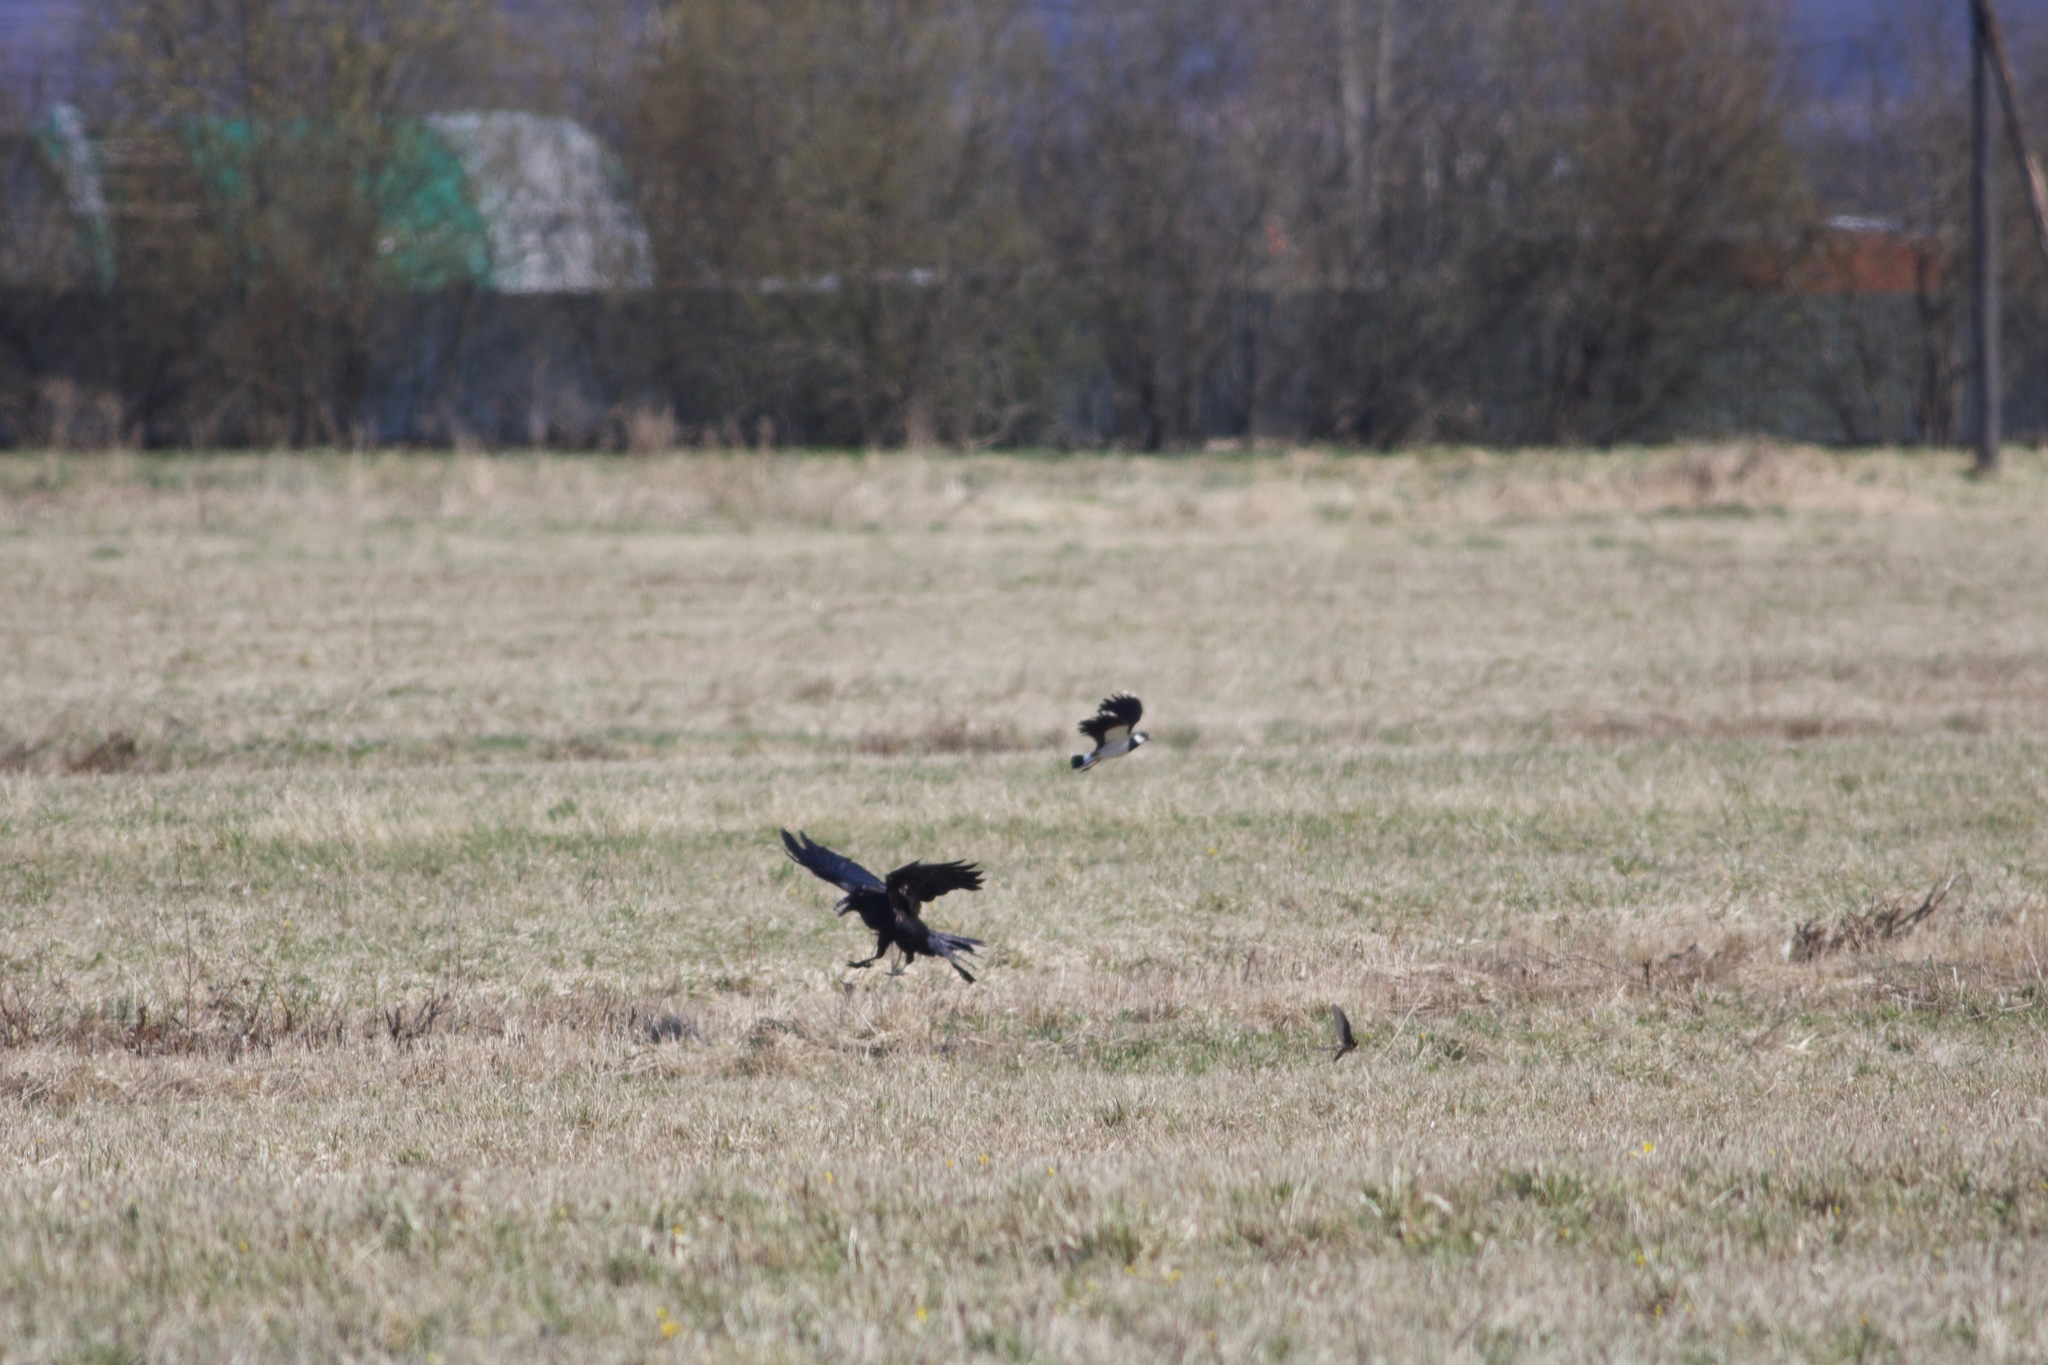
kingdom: Animalia
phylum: Chordata
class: Aves
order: Charadriiformes
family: Charadriidae
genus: Vanellus
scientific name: Vanellus vanellus
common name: Northern lapwing
